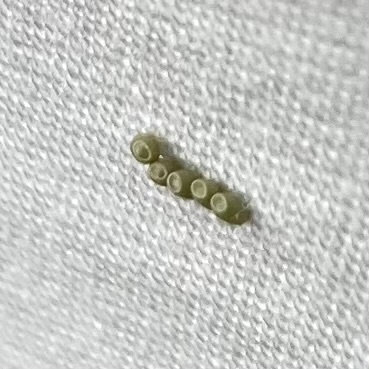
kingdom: Animalia
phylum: Arthropoda
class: Insecta
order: Lepidoptera
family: Geometridae
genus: Ennomos
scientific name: Ennomos subsignaria
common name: Elm spanworm
